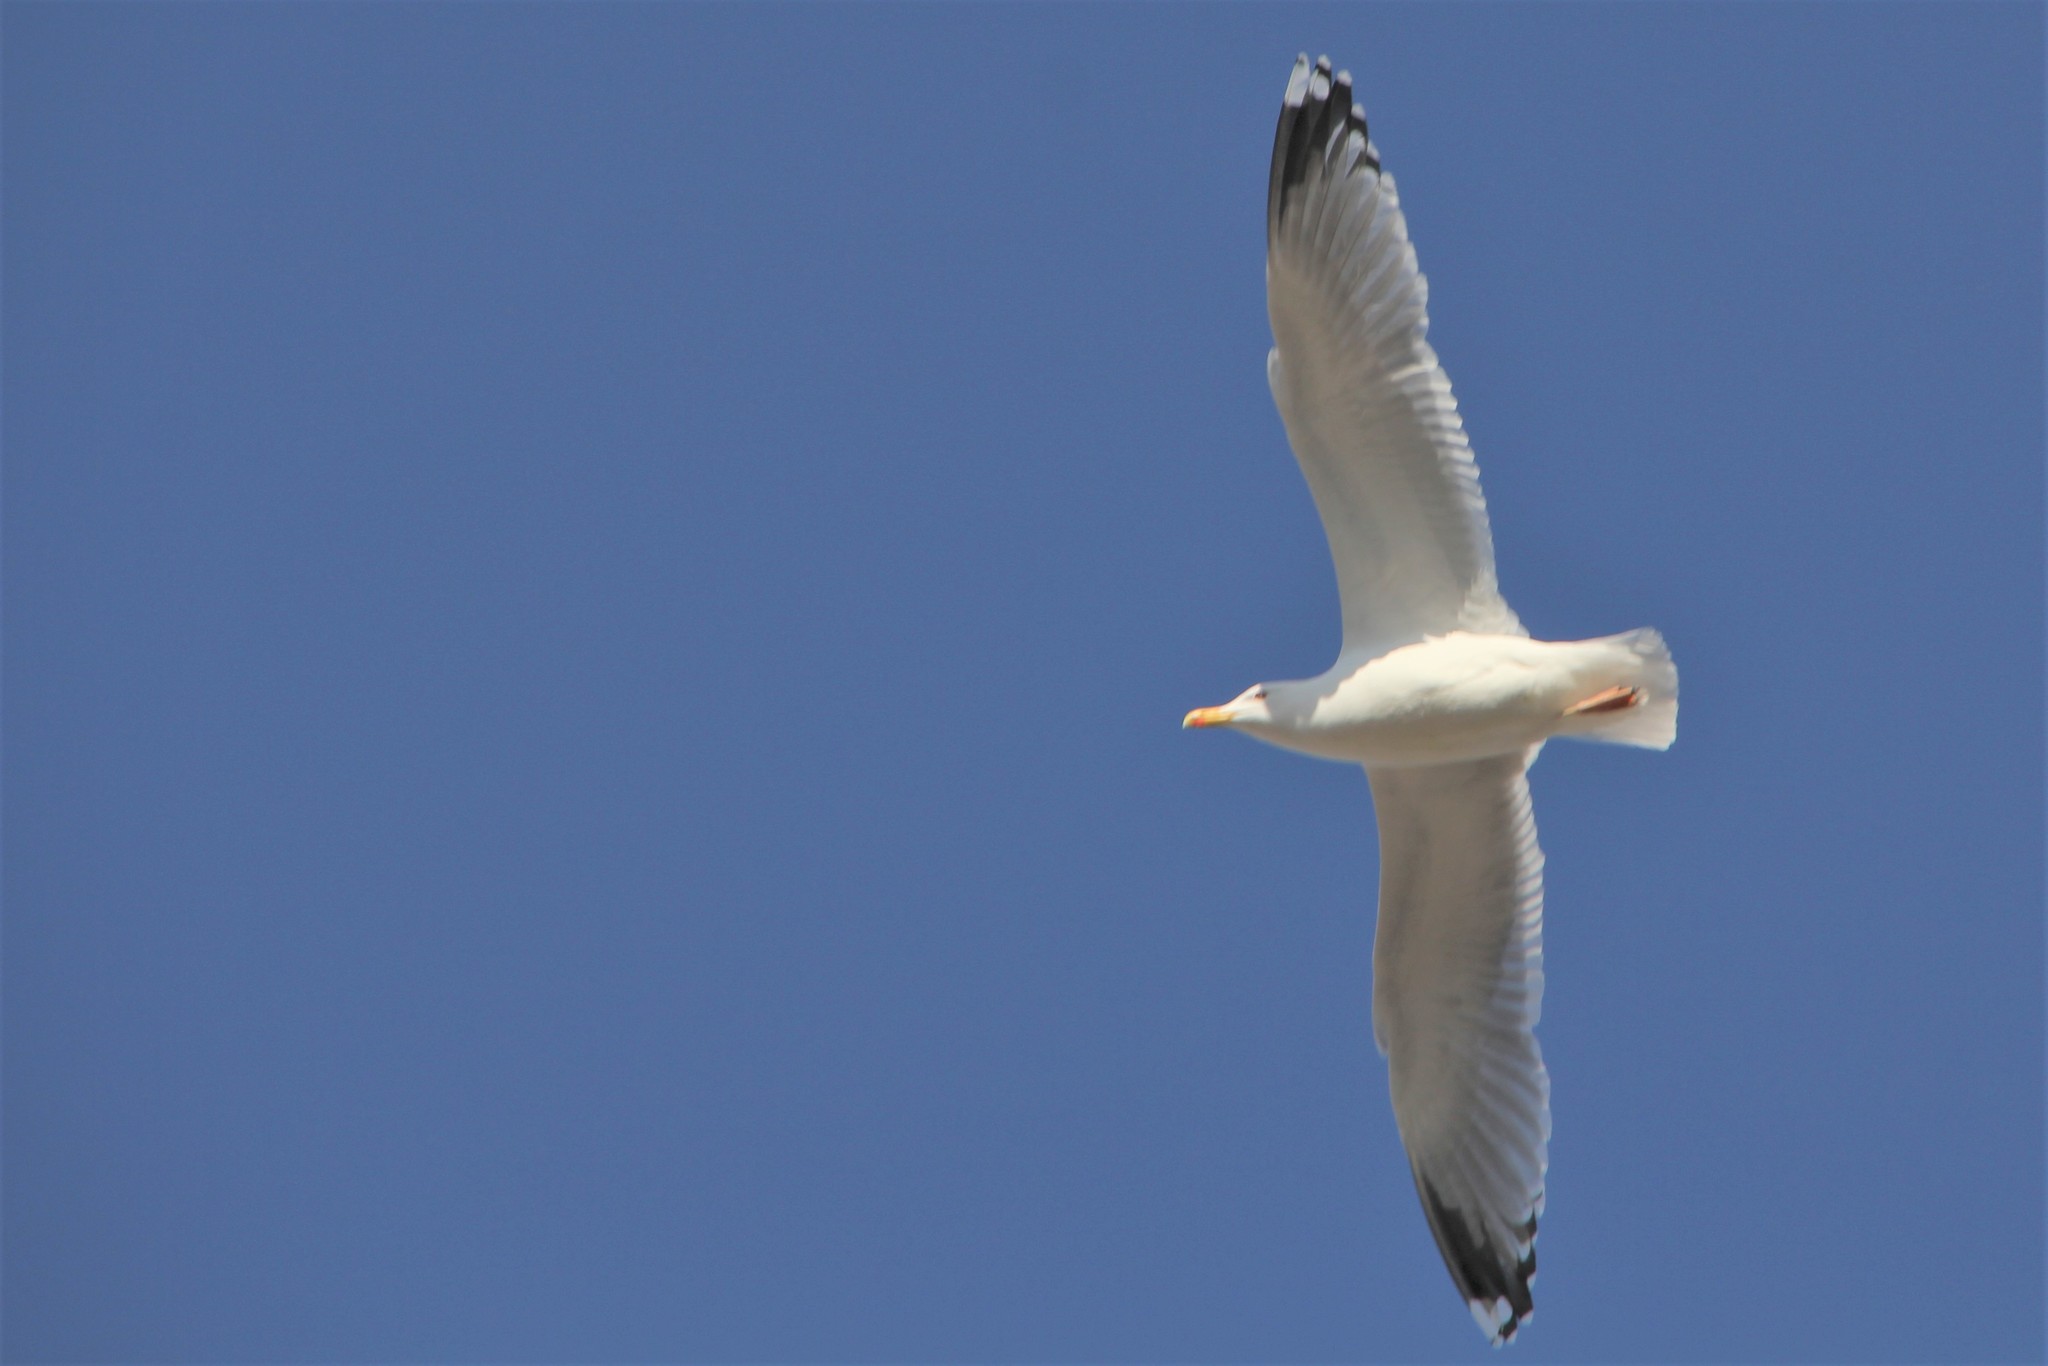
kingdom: Animalia
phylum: Chordata
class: Aves
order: Charadriiformes
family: Laridae
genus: Larus
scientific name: Larus argentatus
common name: Herring gull
